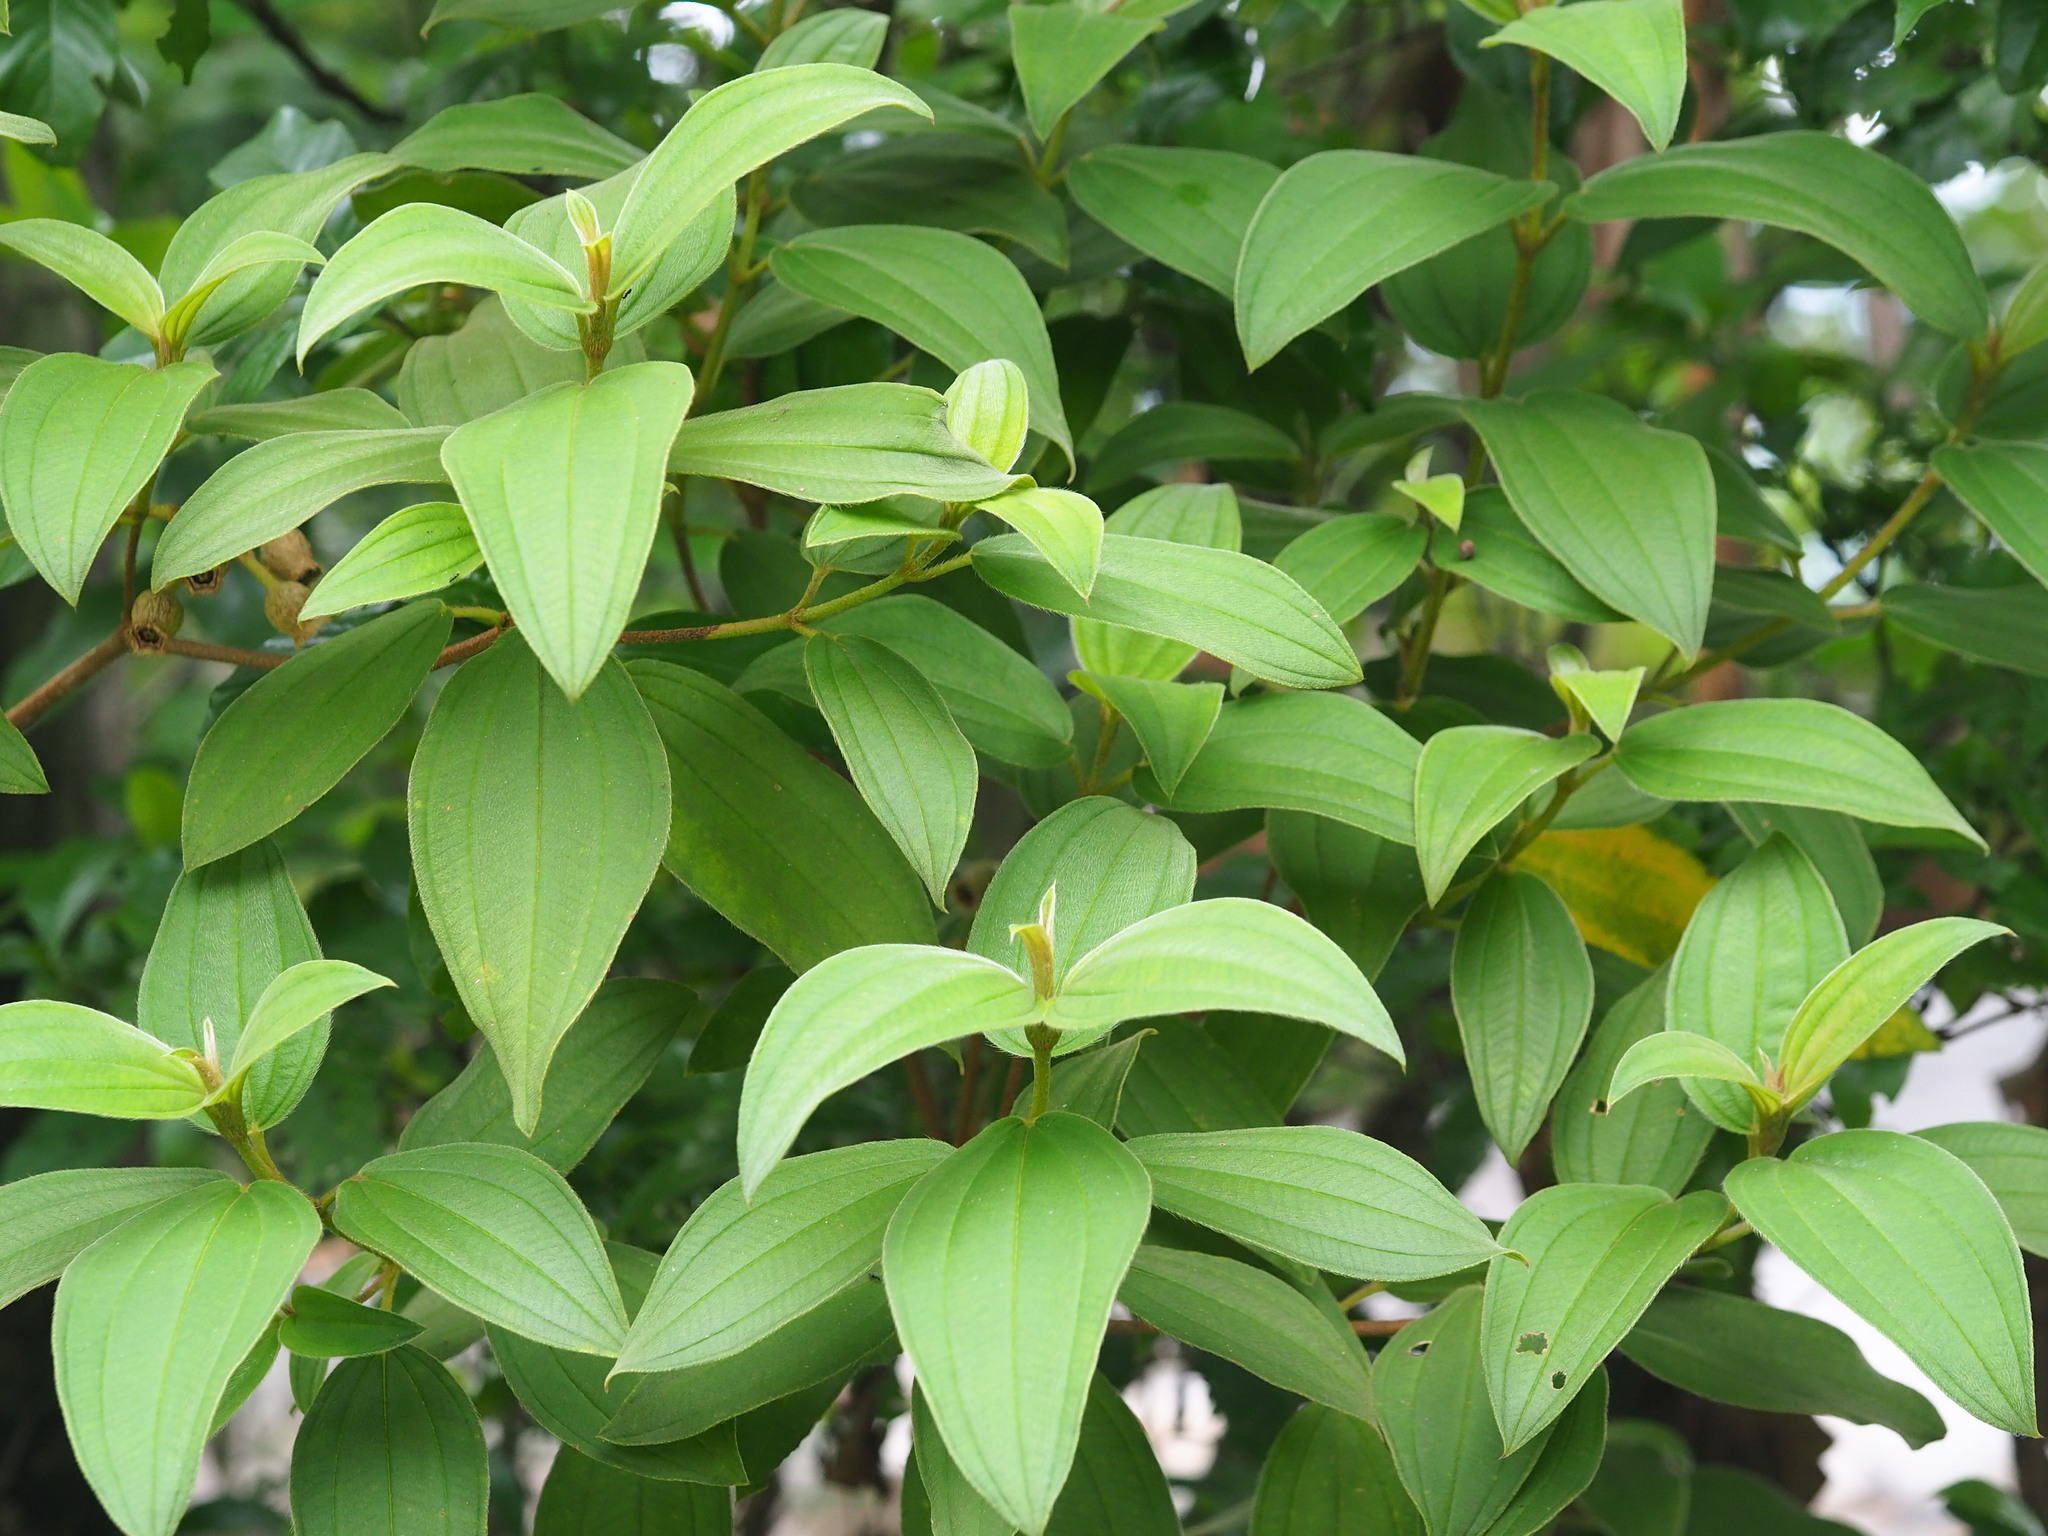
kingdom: Plantae
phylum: Tracheophyta
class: Magnoliopsida
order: Myrtales
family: Melastomataceae
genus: Melastoma
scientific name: Melastoma malabathricum
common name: Indian-rhododendron
